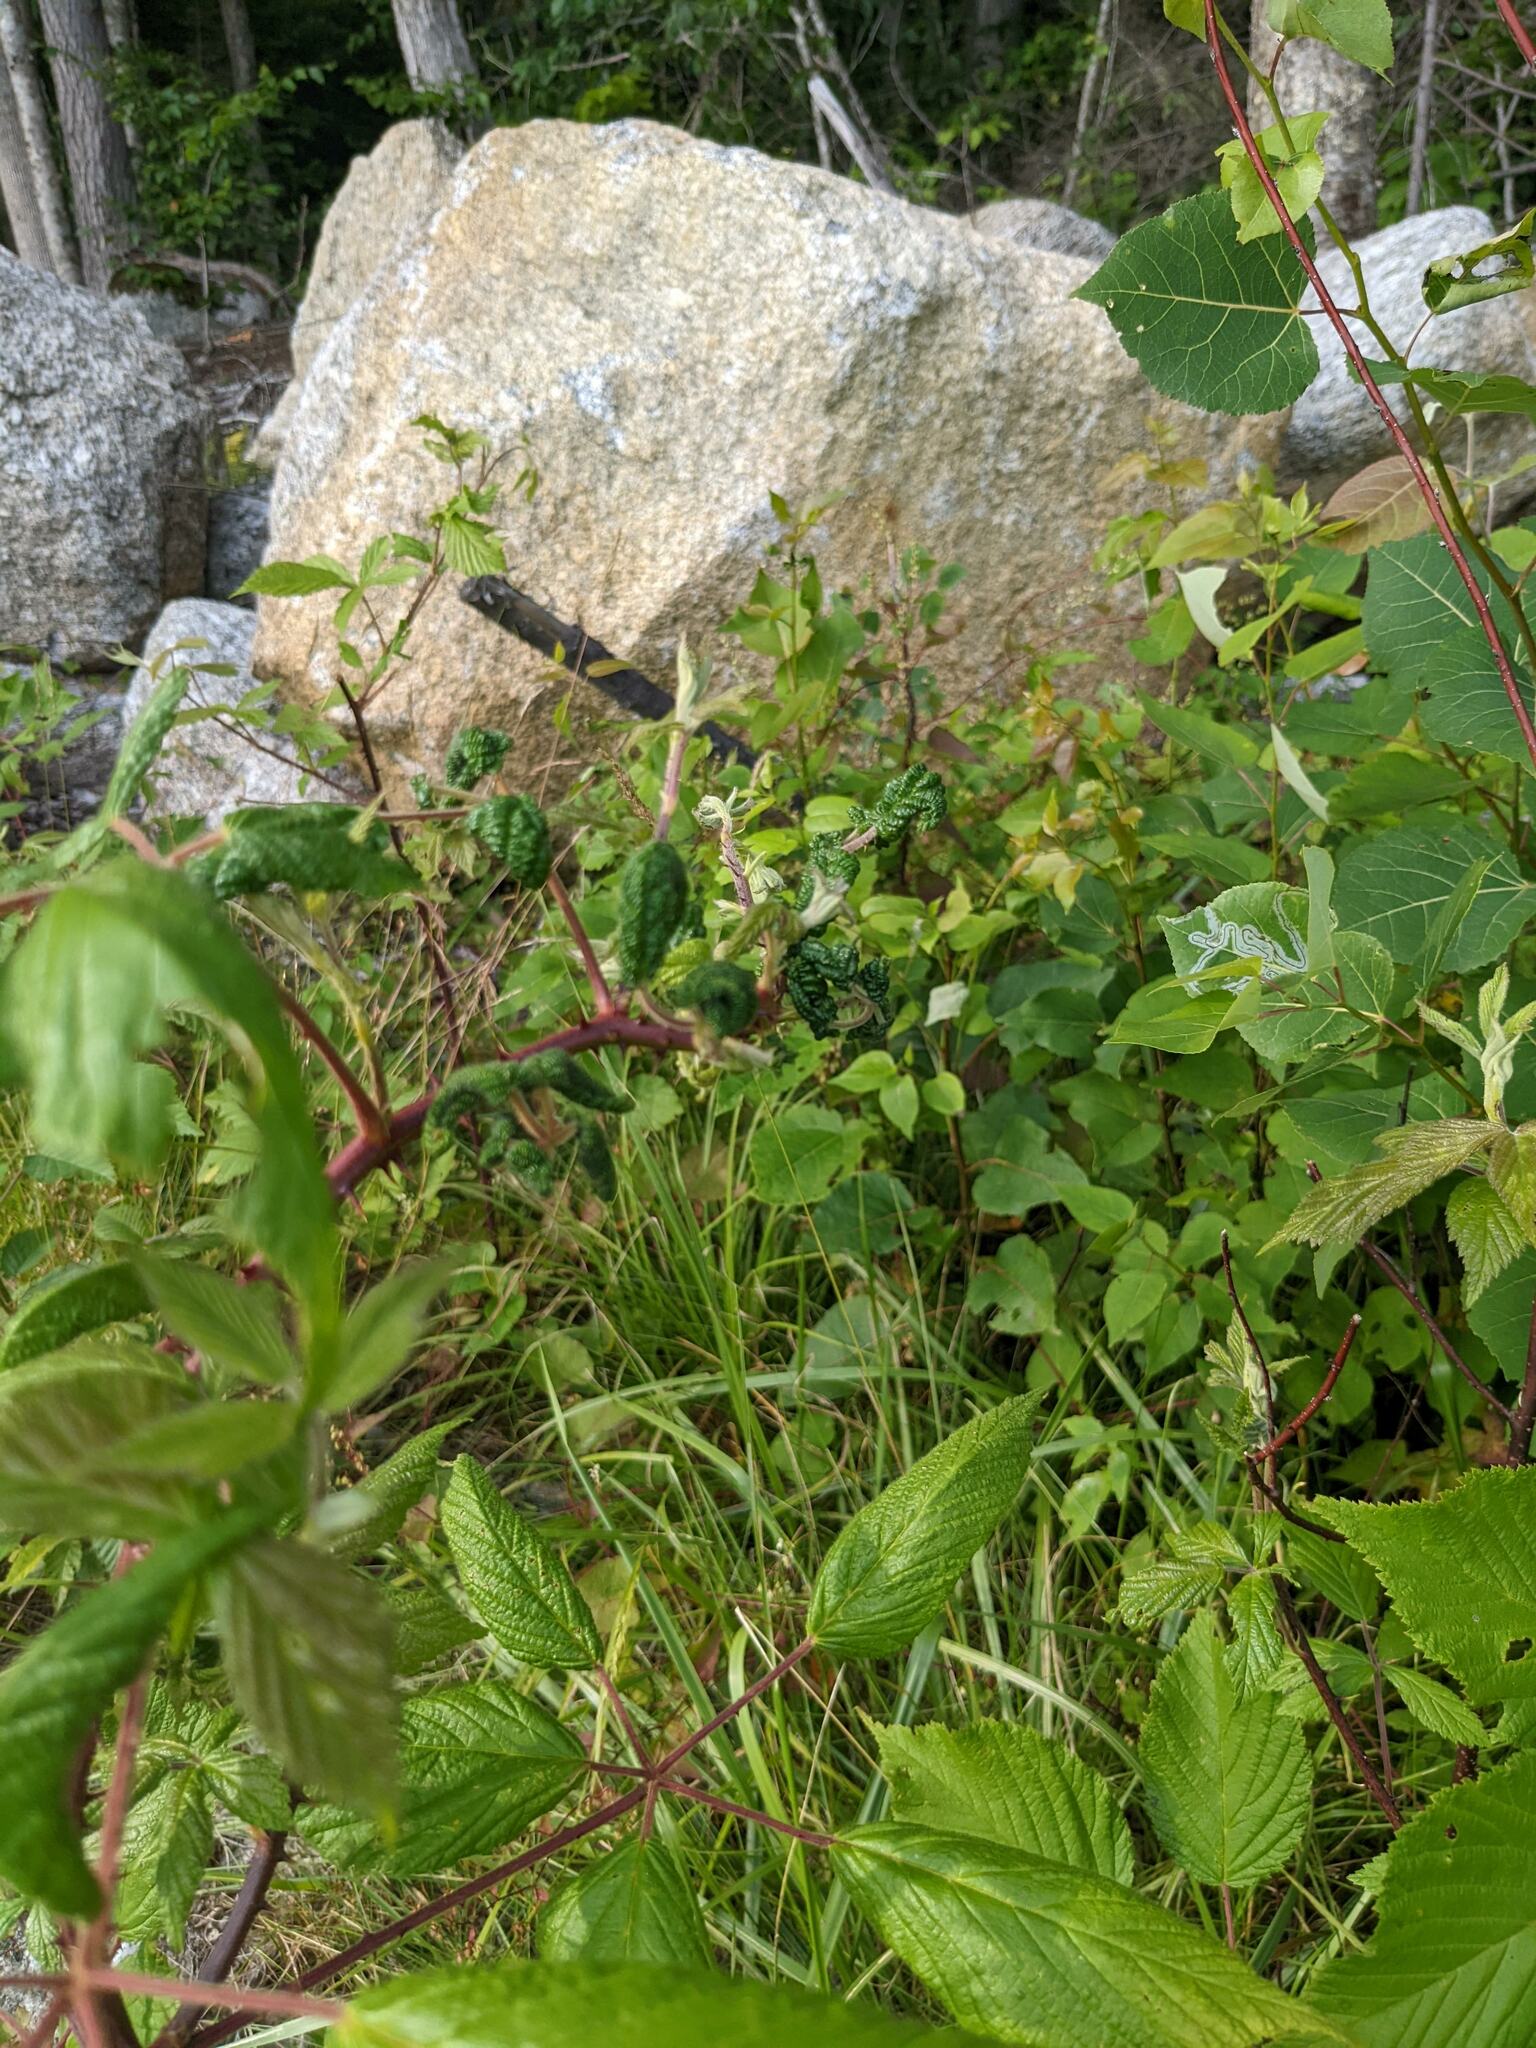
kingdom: Plantae
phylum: Tracheophyta
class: Magnoliopsida
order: Rosales
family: Rosaceae
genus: Rubus
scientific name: Rubus allegheniensis
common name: Allegheny blackberry
